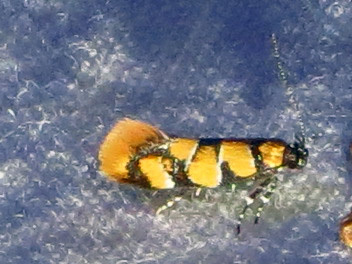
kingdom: Animalia
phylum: Arthropoda
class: Insecta
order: Lepidoptera
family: Oecophoridae
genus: Decantha
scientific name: Decantha borkhausenii
